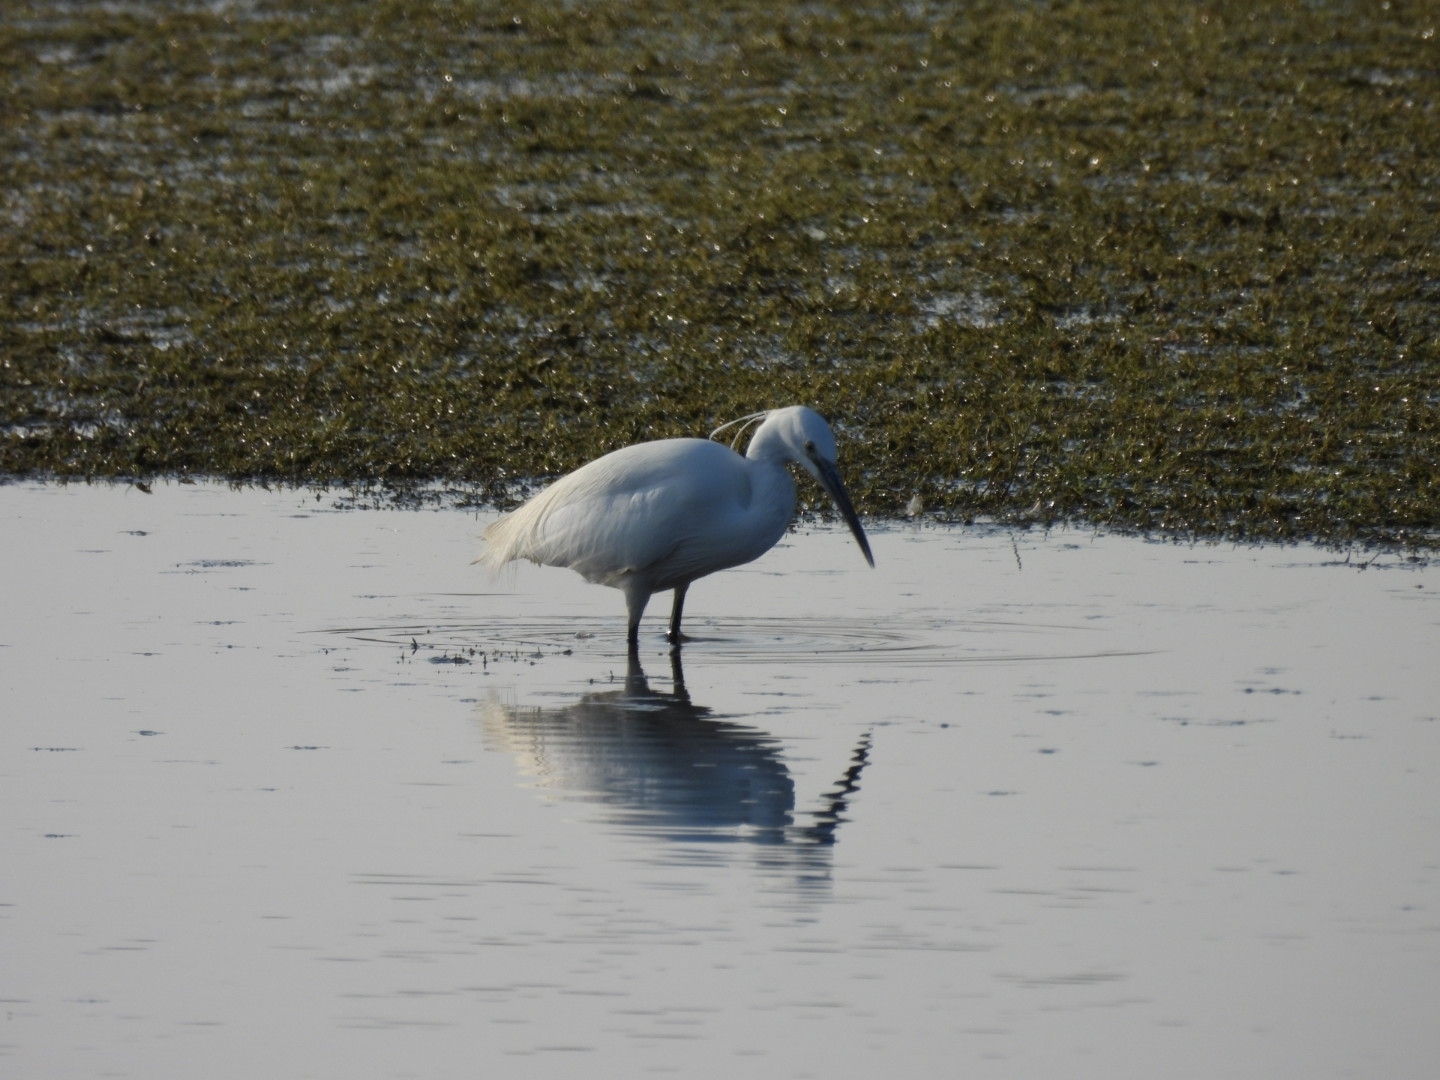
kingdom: Animalia
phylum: Chordata
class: Aves
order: Pelecaniformes
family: Ardeidae
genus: Egretta
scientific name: Egretta garzetta
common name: Little egret
